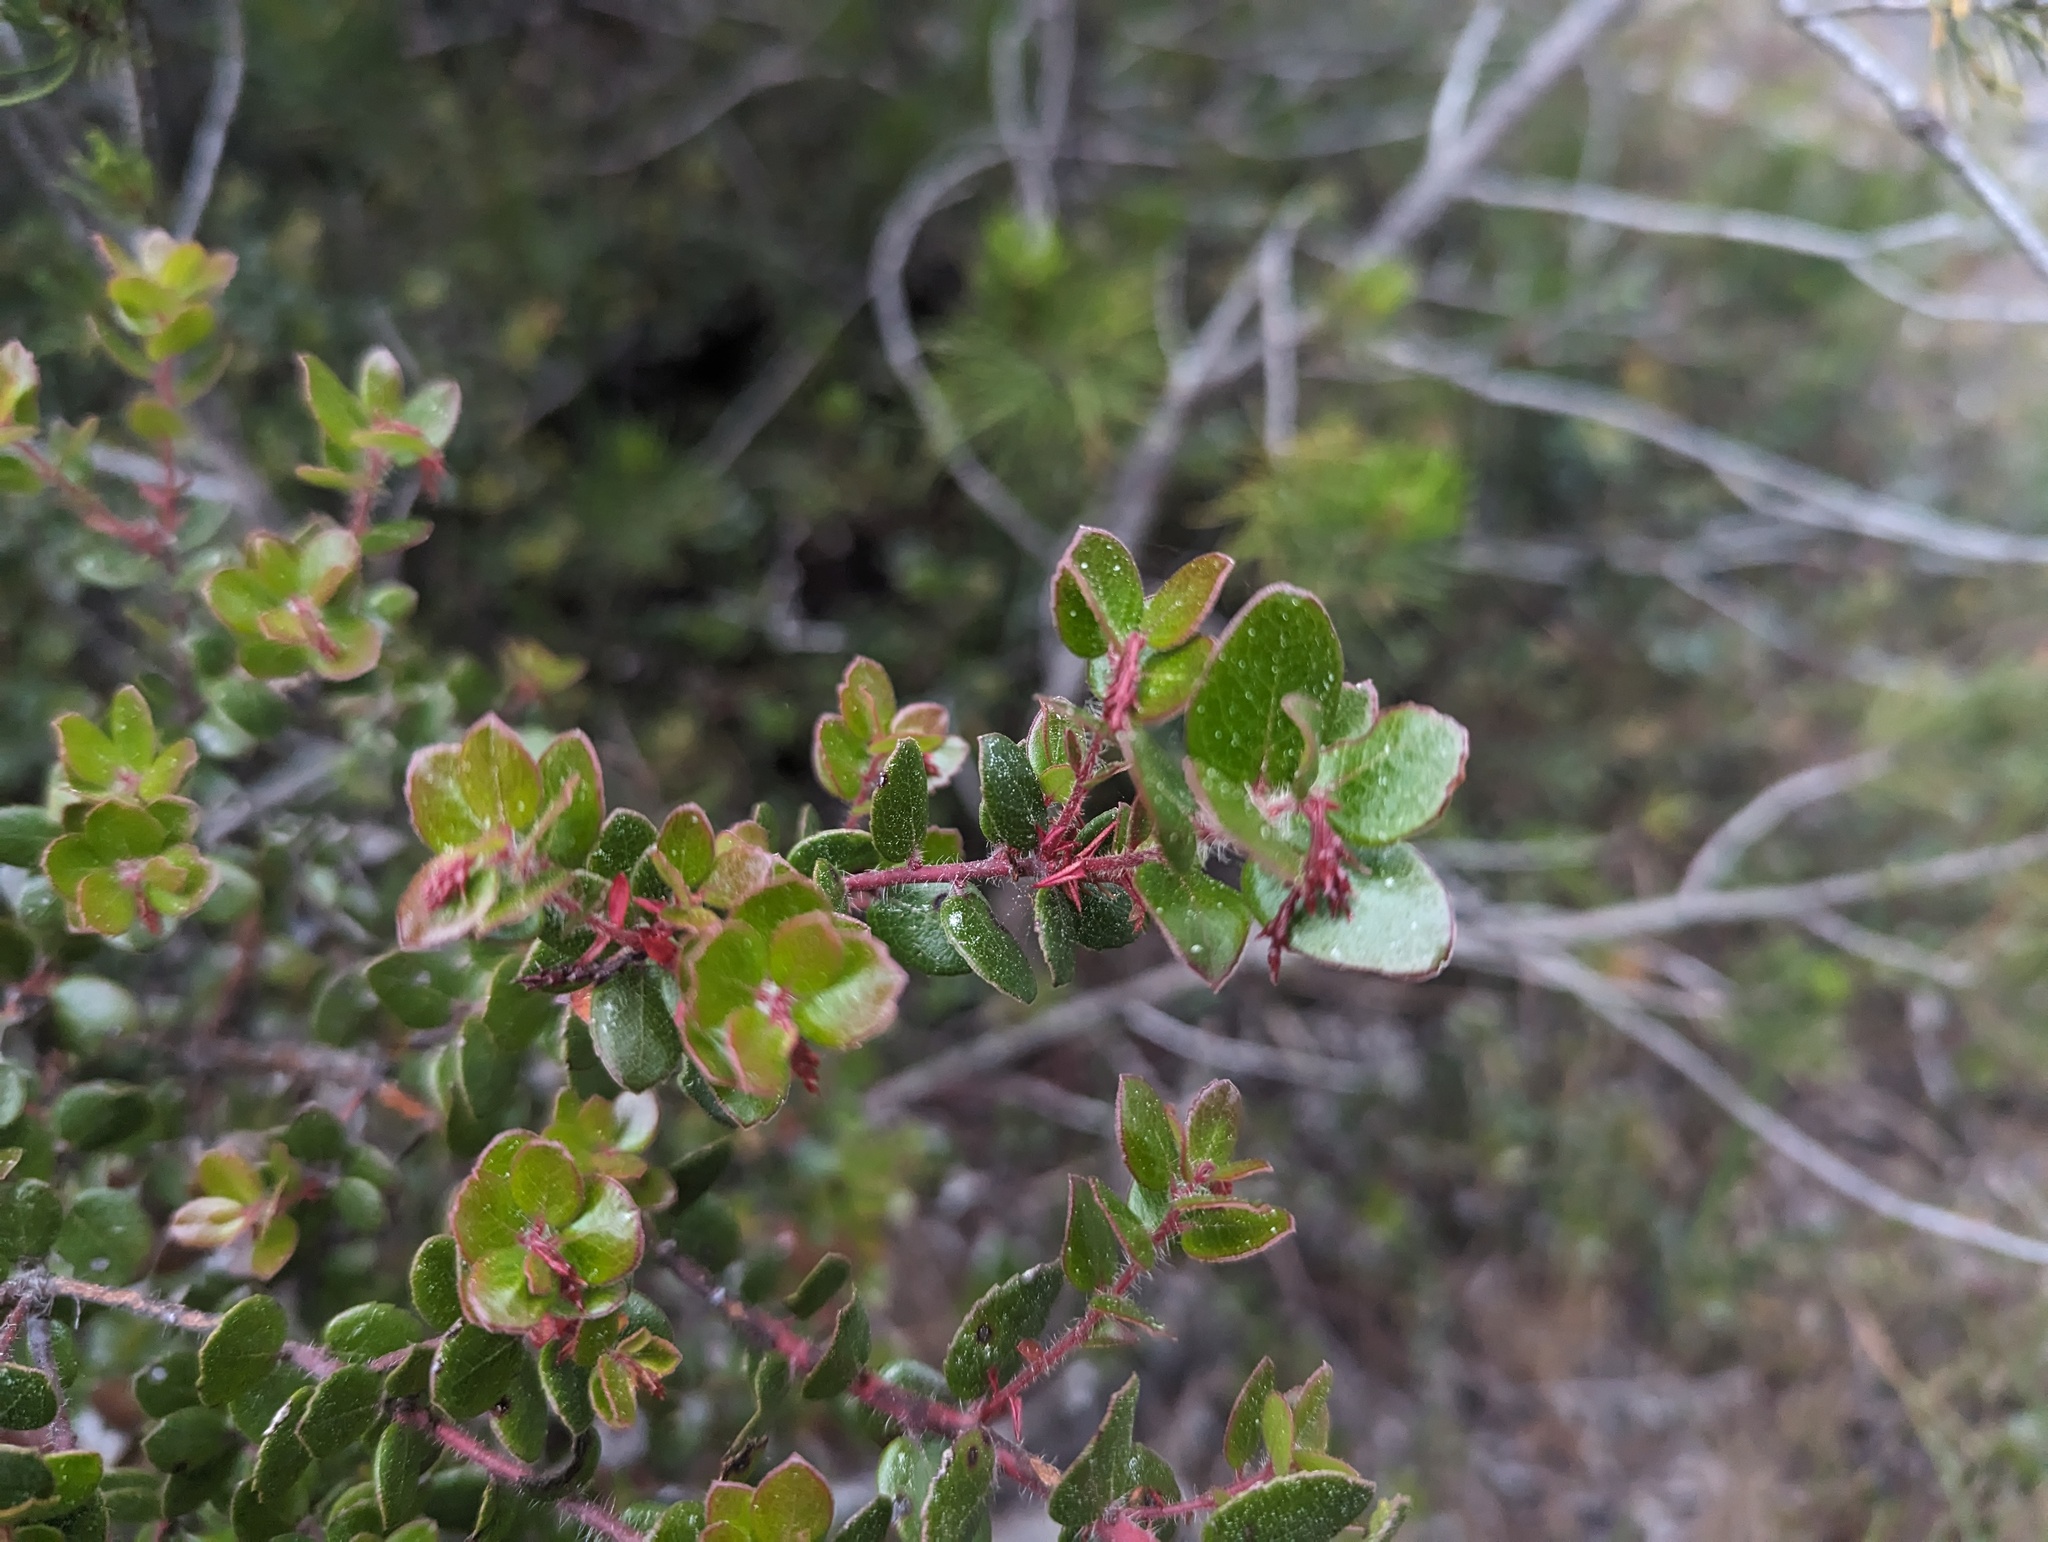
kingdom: Plantae
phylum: Tracheophyta
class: Magnoliopsida
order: Ericales
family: Ericaceae
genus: Arctostaphylos
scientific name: Arctostaphylos nummularia
